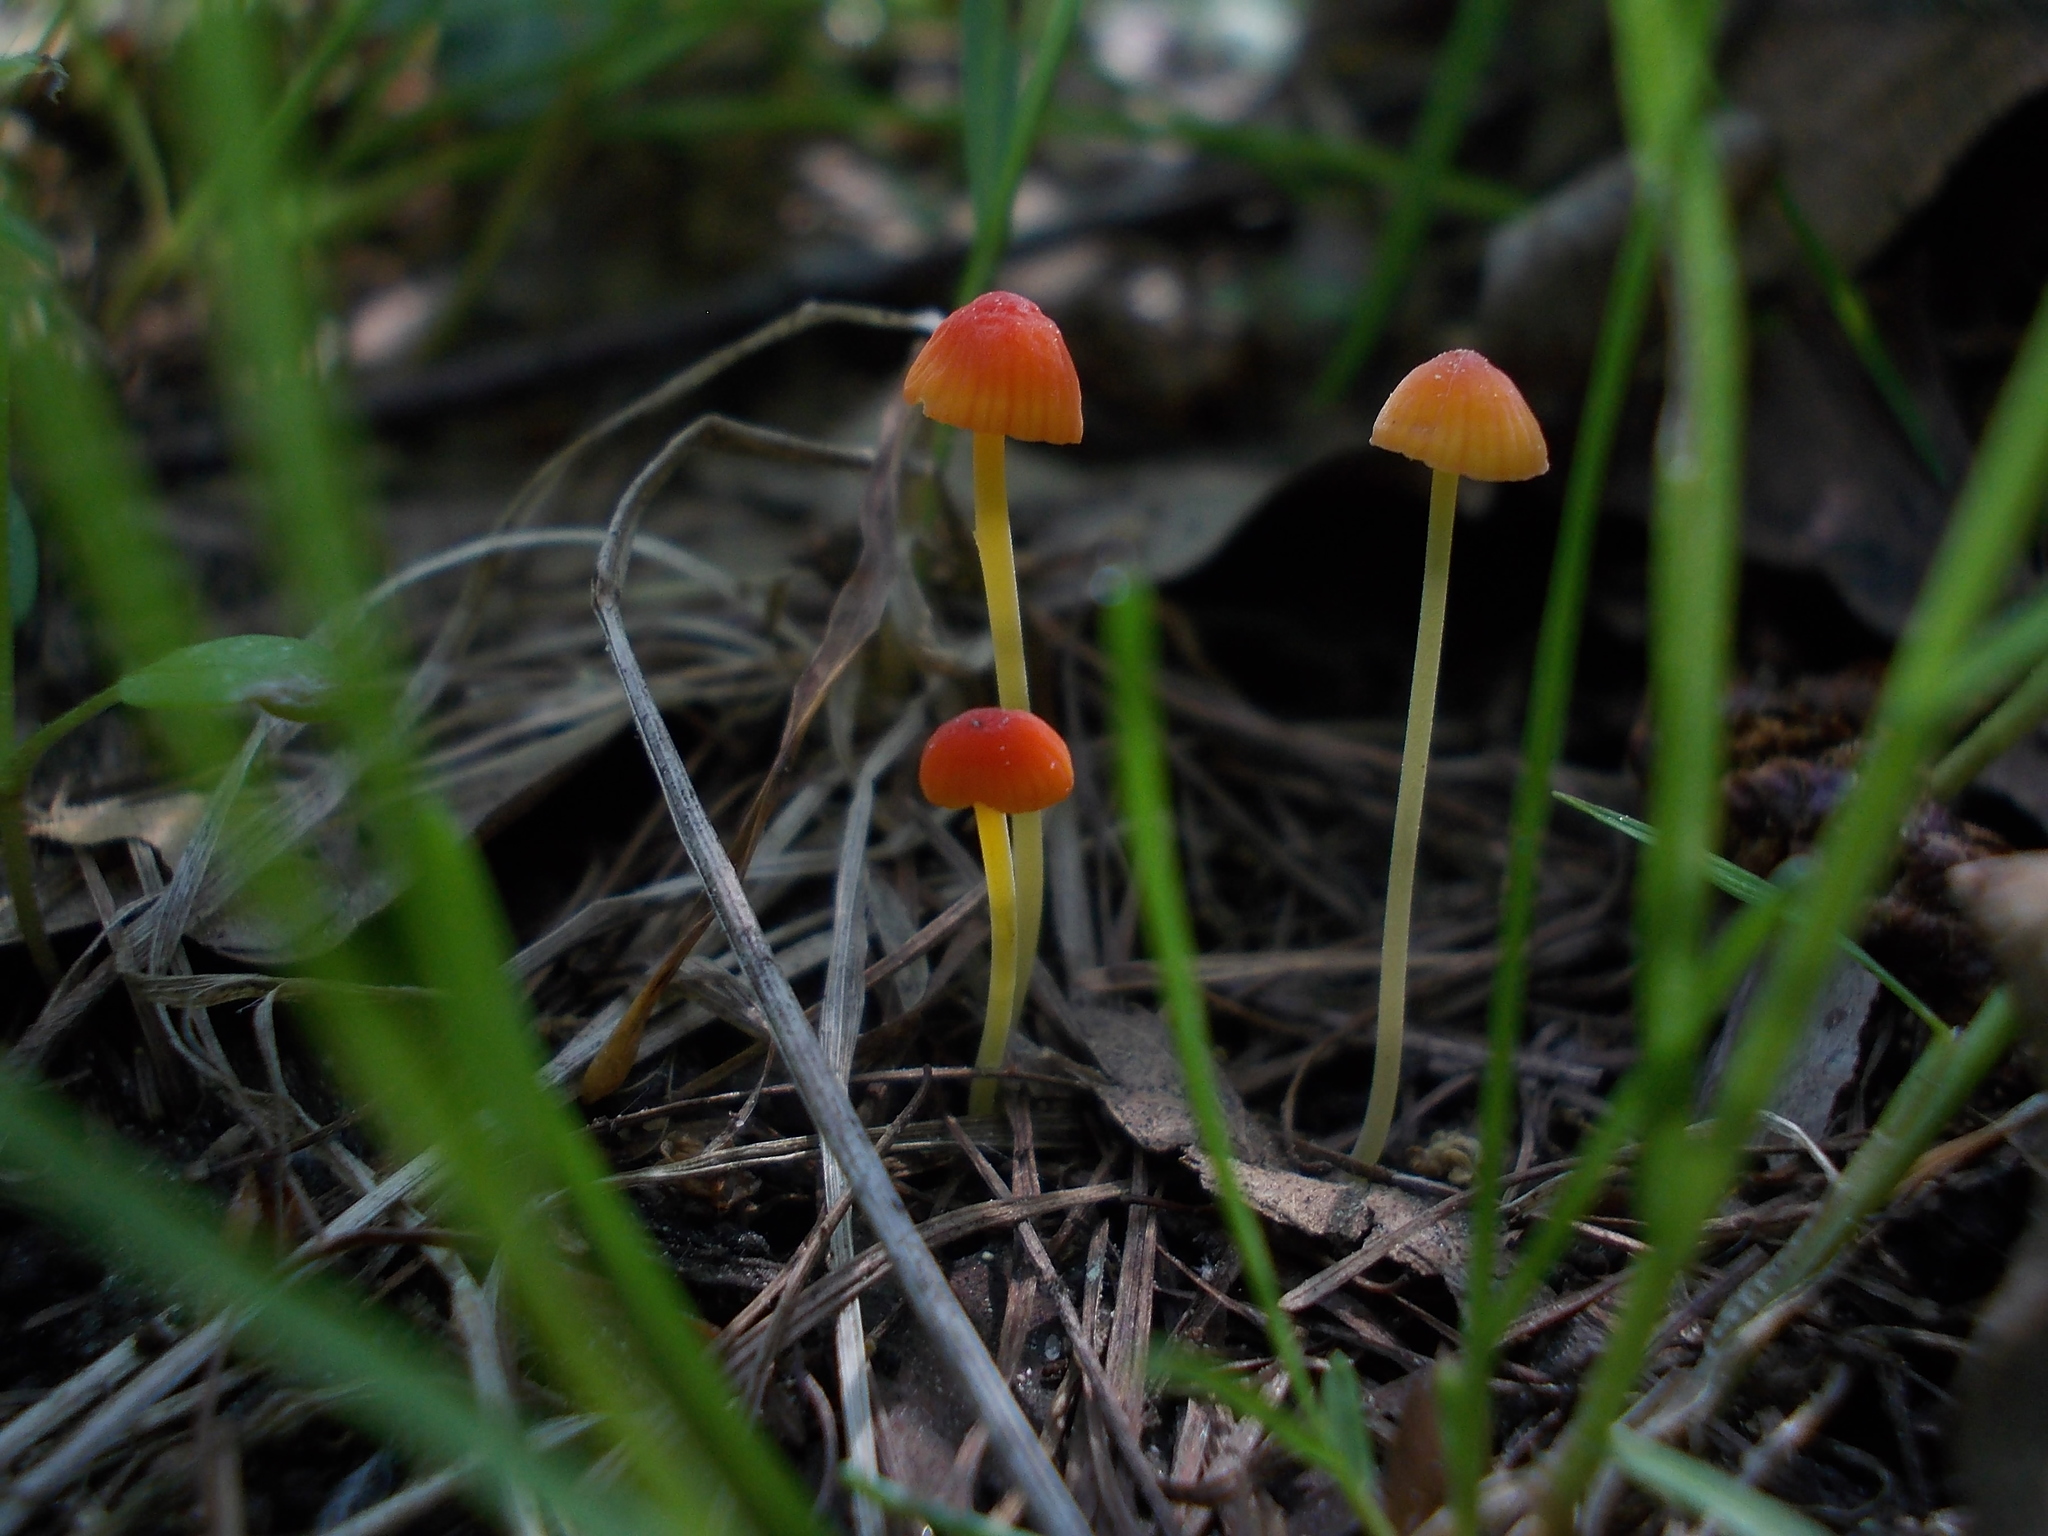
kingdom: Fungi
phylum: Basidiomycota
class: Agaricomycetes
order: Agaricales
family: Mycenaceae
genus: Mycena
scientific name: Mycena acicula
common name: Orange bonnet
